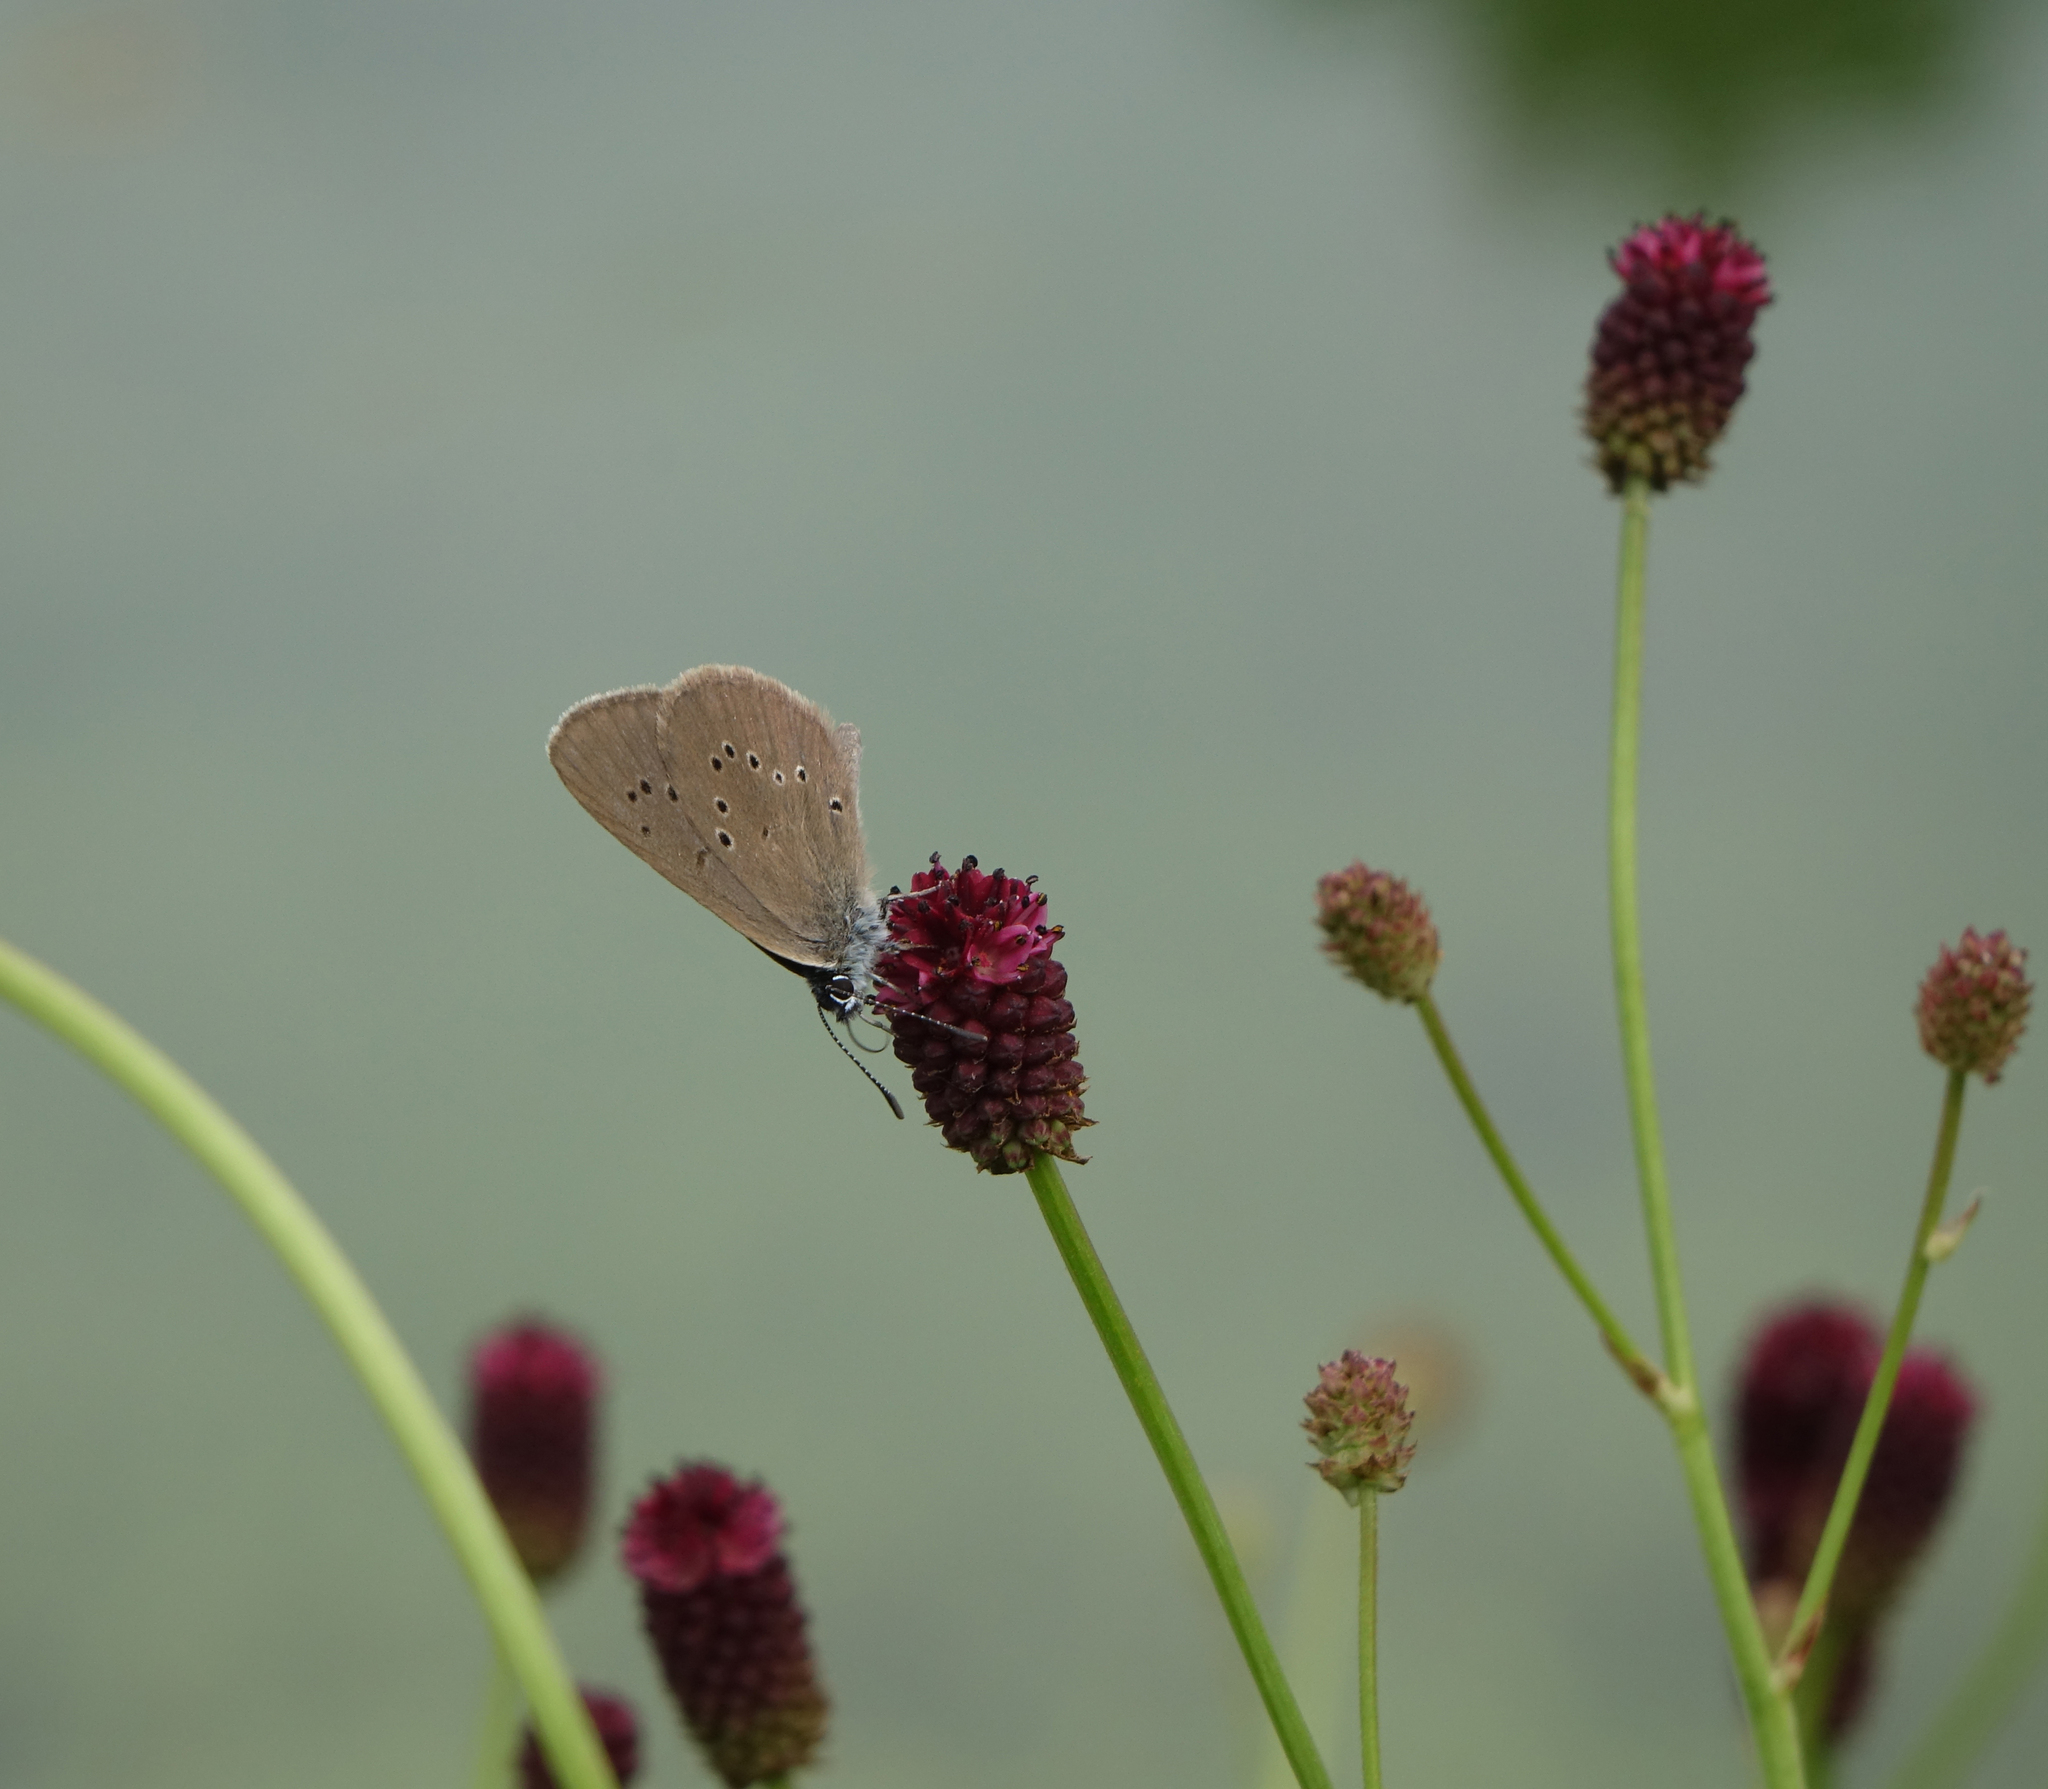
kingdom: Animalia
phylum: Arthropoda
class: Insecta
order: Lepidoptera
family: Lycaenidae
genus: Maculinea
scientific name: Maculinea nausithous
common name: Dusky large blue
